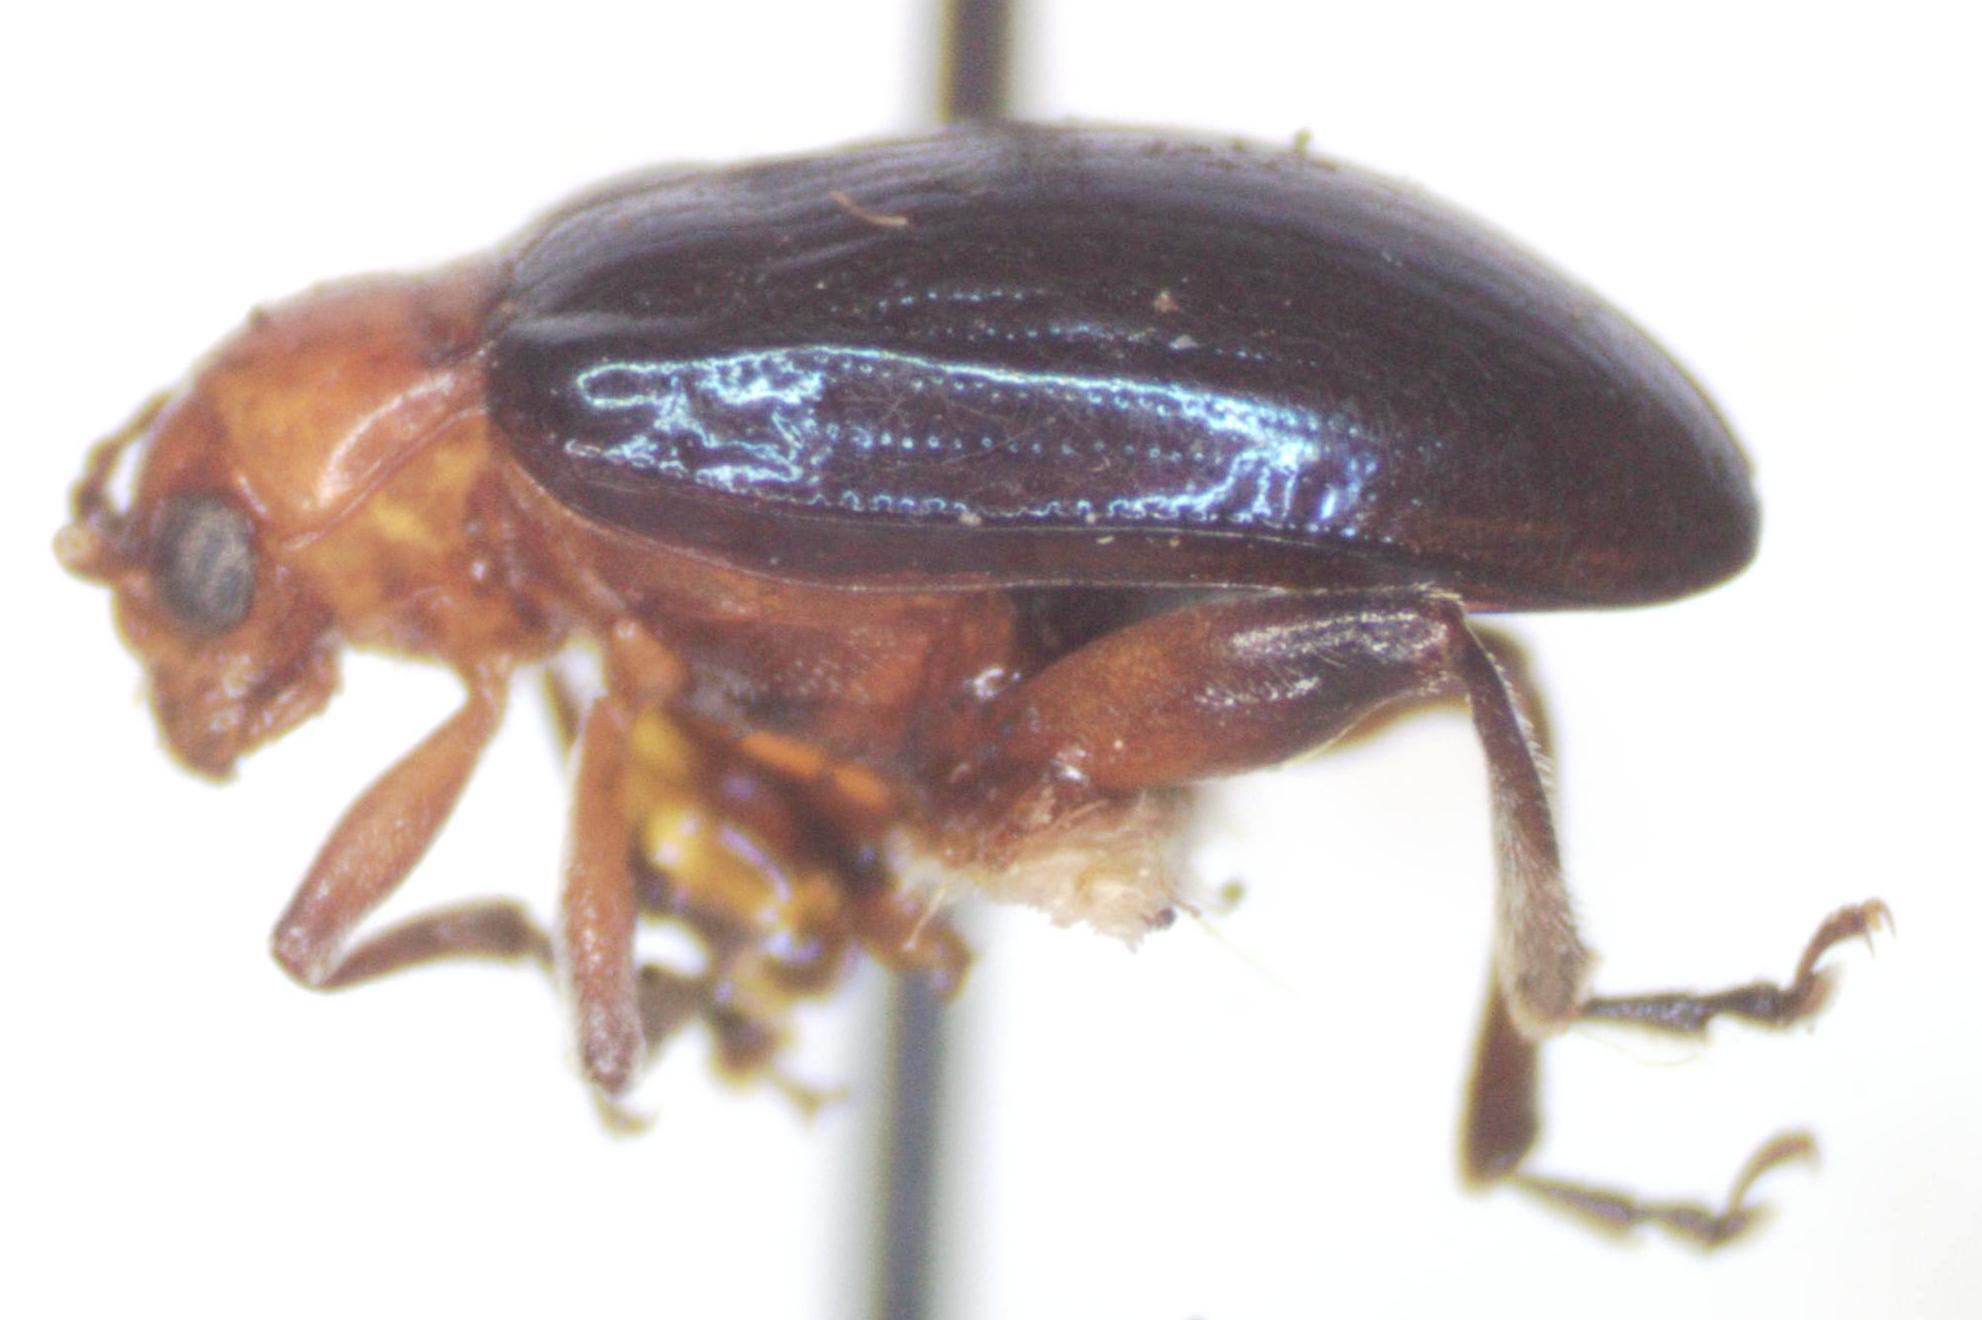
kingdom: Animalia
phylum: Arthropoda
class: Insecta
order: Coleoptera
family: Chrysomelidae
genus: Diphaulaca
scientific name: Diphaulaca aulica
